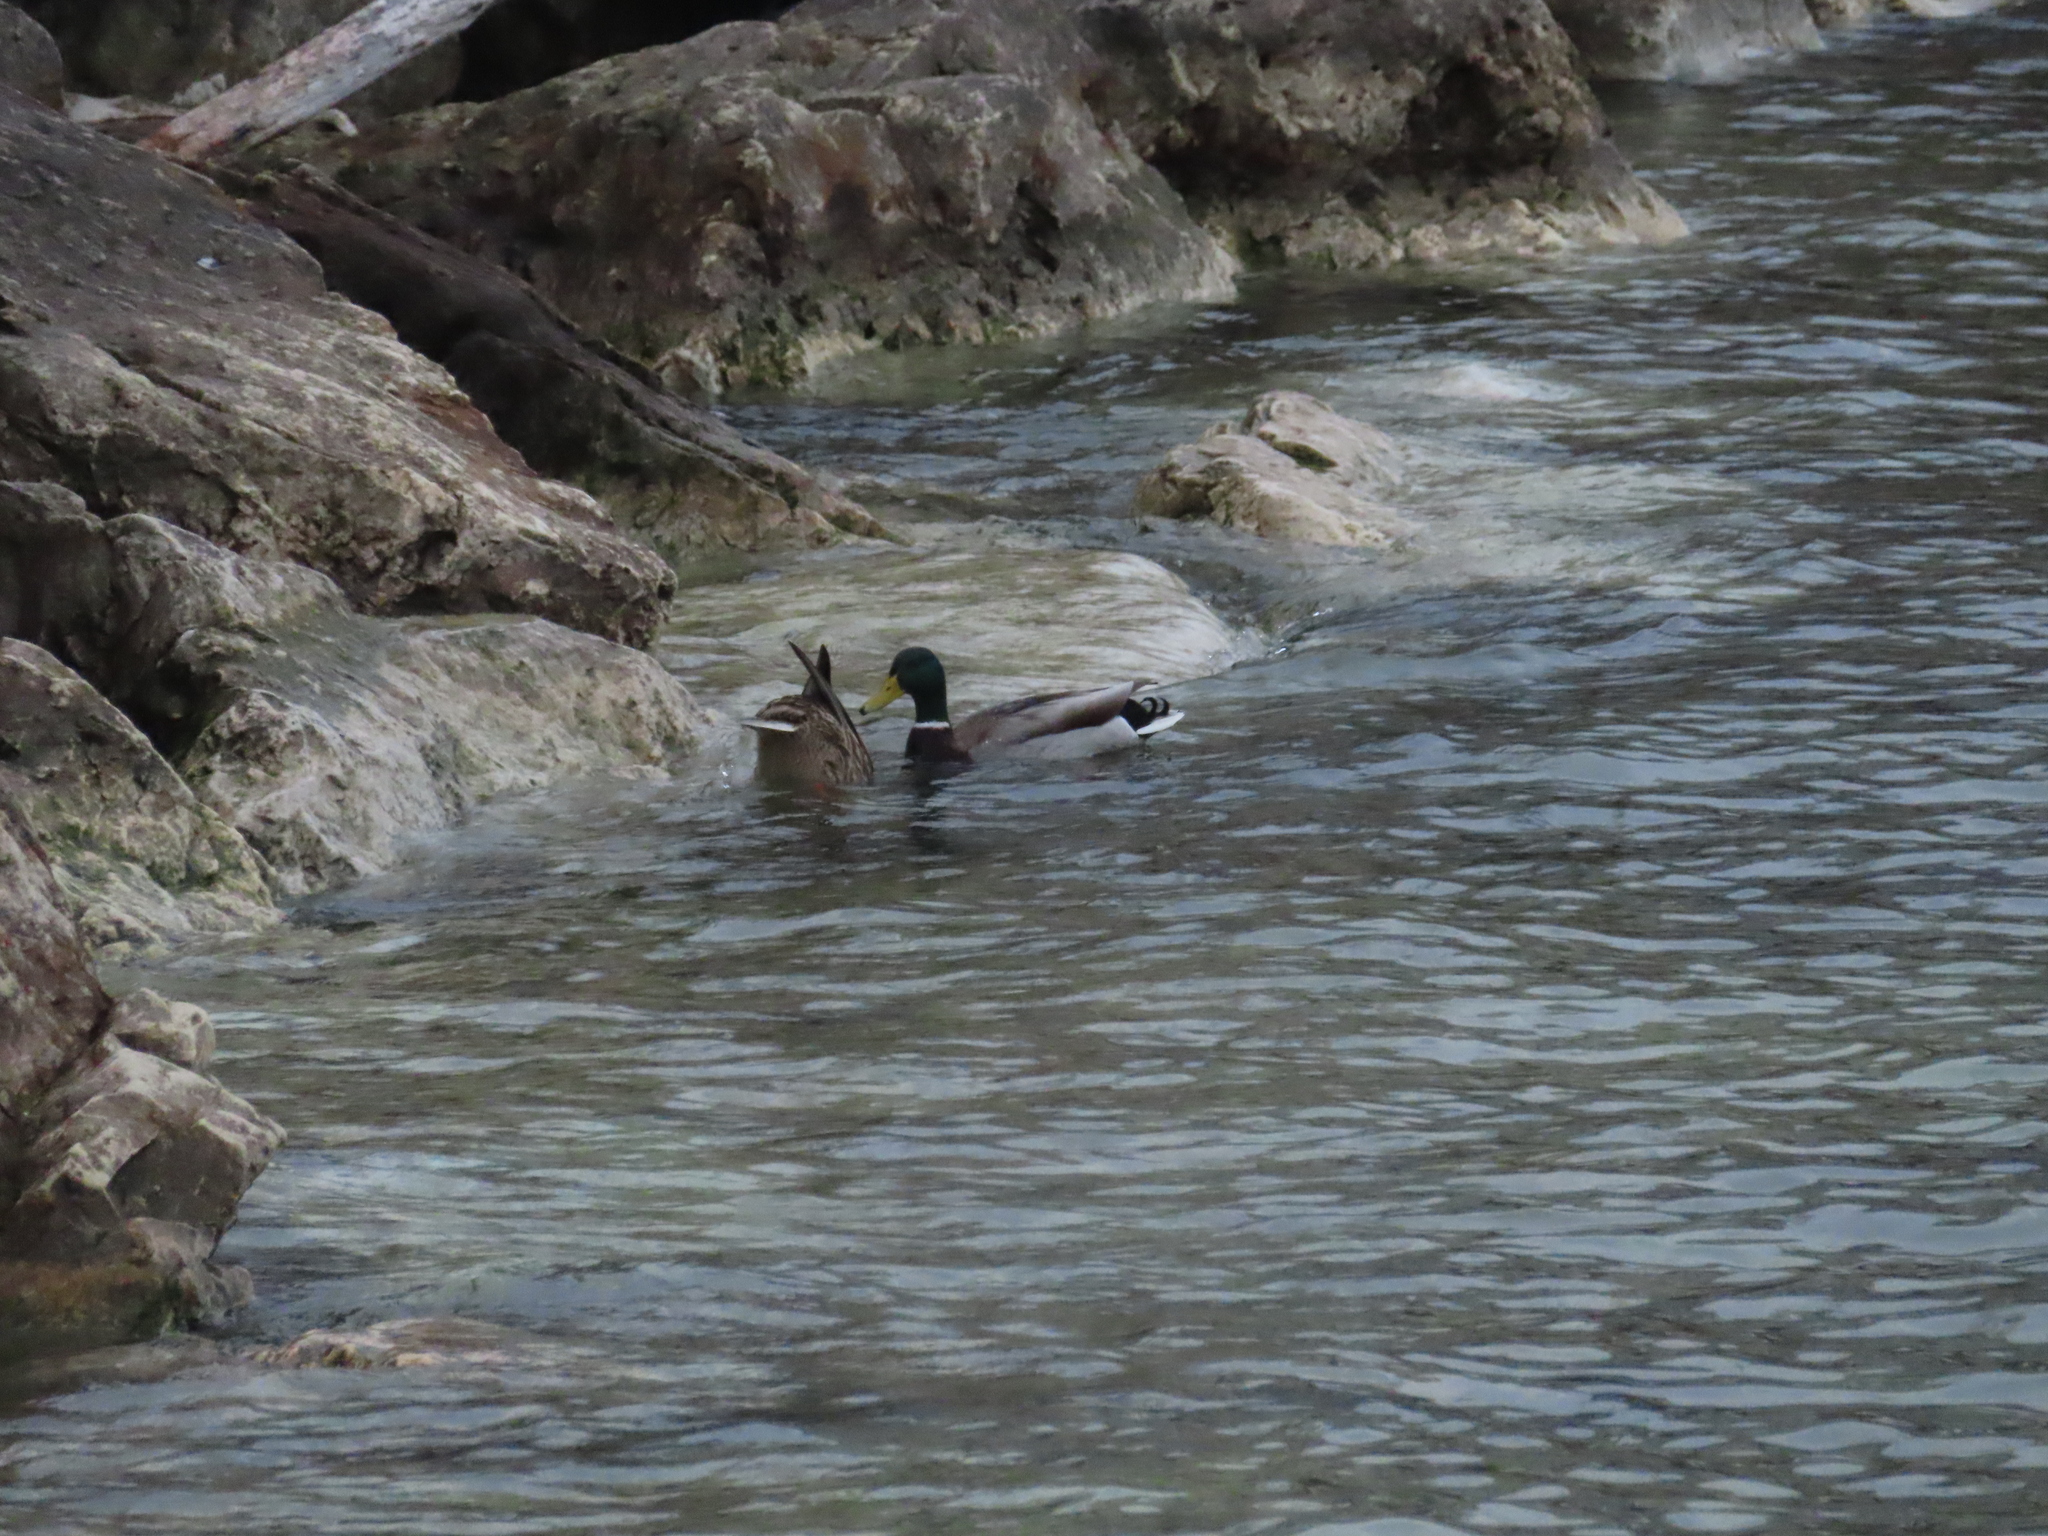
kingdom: Animalia
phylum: Chordata
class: Aves
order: Anseriformes
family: Anatidae
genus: Anas
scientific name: Anas platyrhynchos
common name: Mallard
